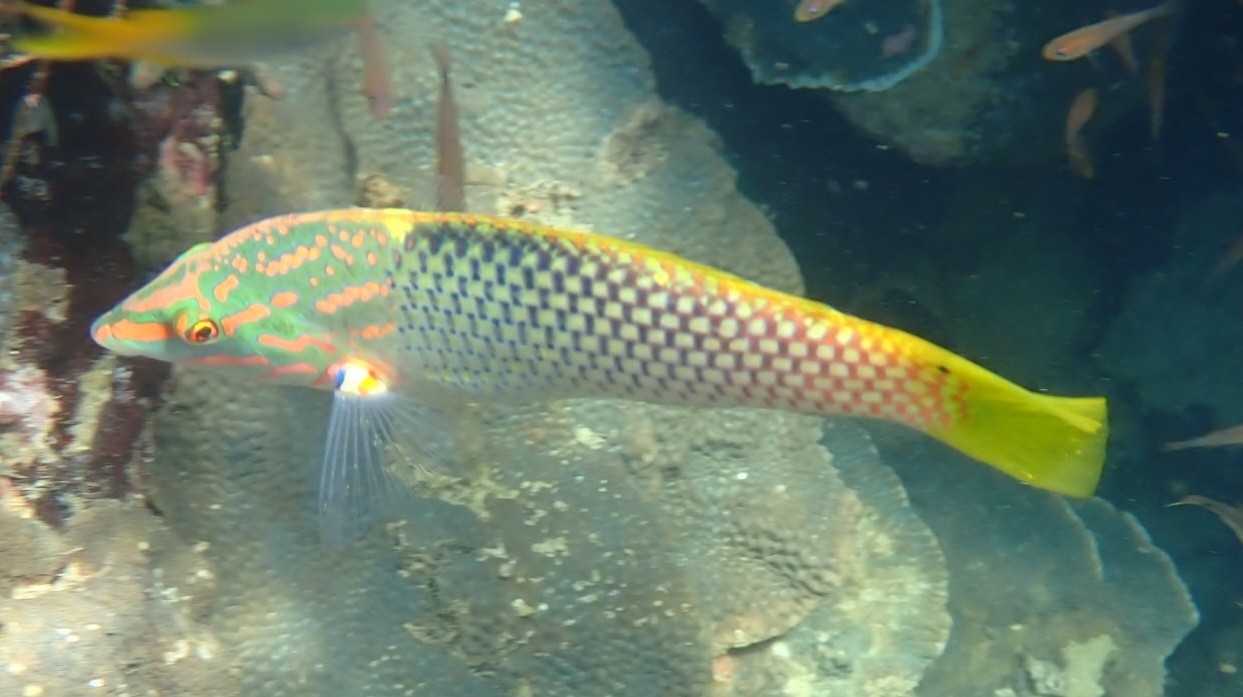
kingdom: Animalia
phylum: Chordata
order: Perciformes
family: Labridae
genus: Halichoeres
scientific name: Halichoeres hortulanus
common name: Checkerboard wrasse
